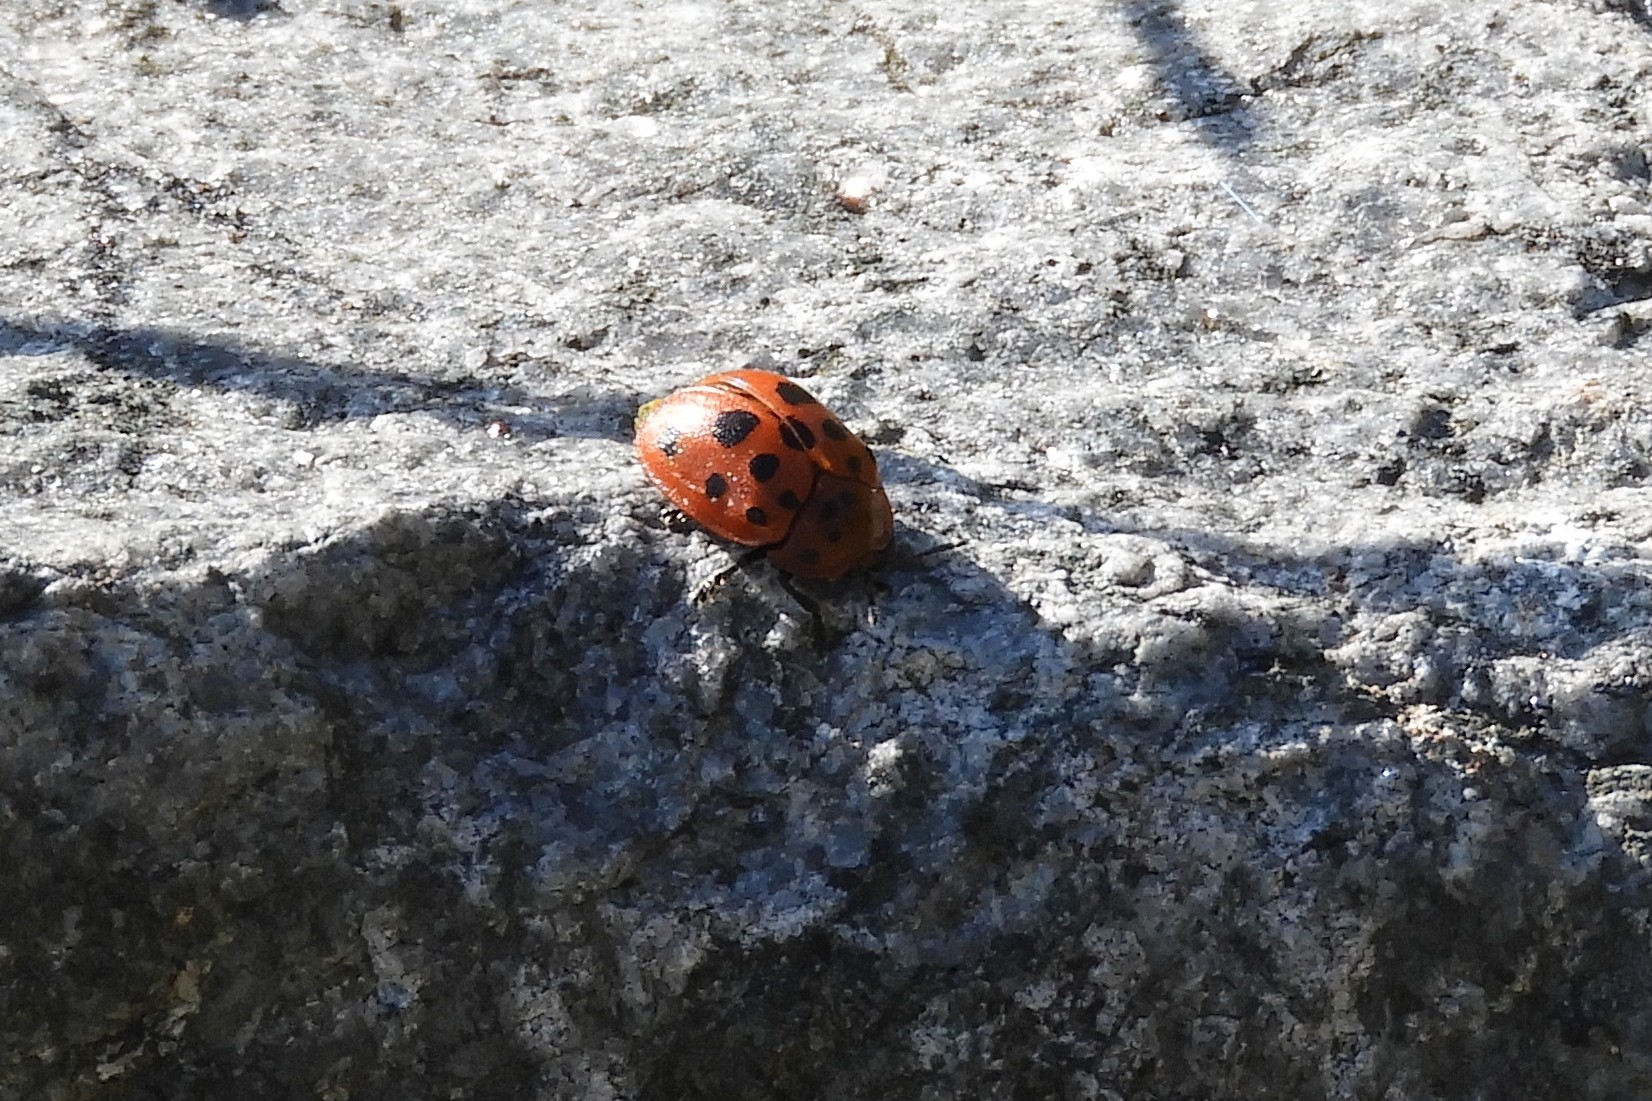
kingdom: Animalia
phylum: Arthropoda
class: Insecta
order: Coleoptera
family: Chrysomelidae
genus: Chelymorpha
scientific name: Chelymorpha cassidea
